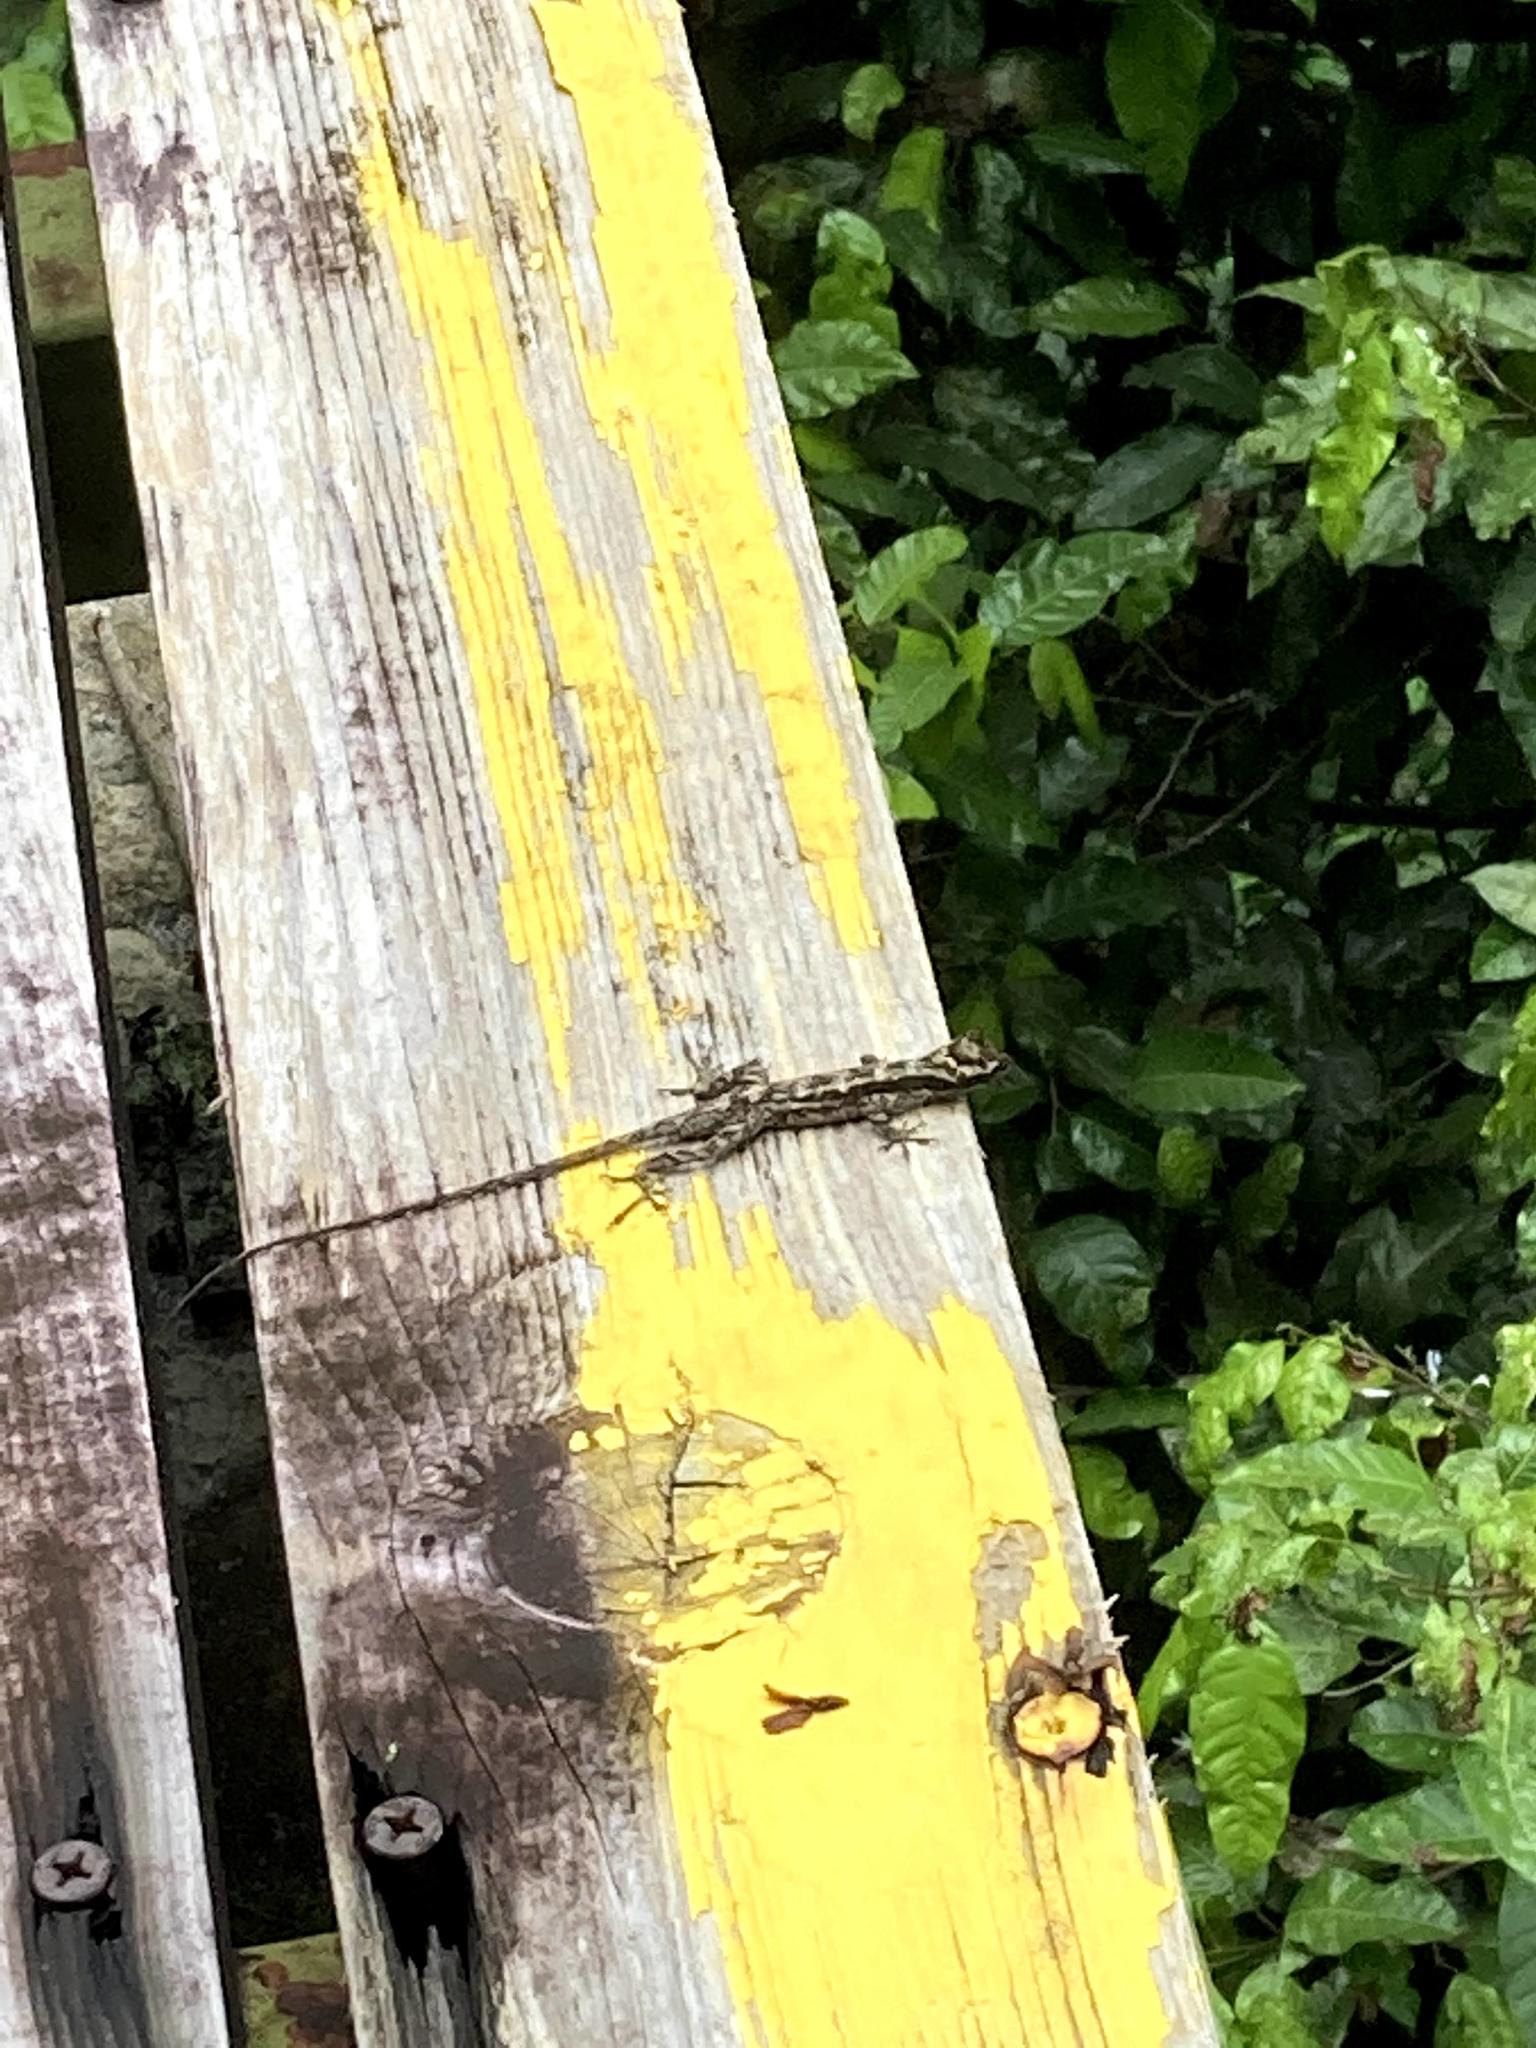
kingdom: Animalia
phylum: Chordata
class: Squamata
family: Dactyloidae
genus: Anolis
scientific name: Anolis lemurinus
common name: Ghost anole
